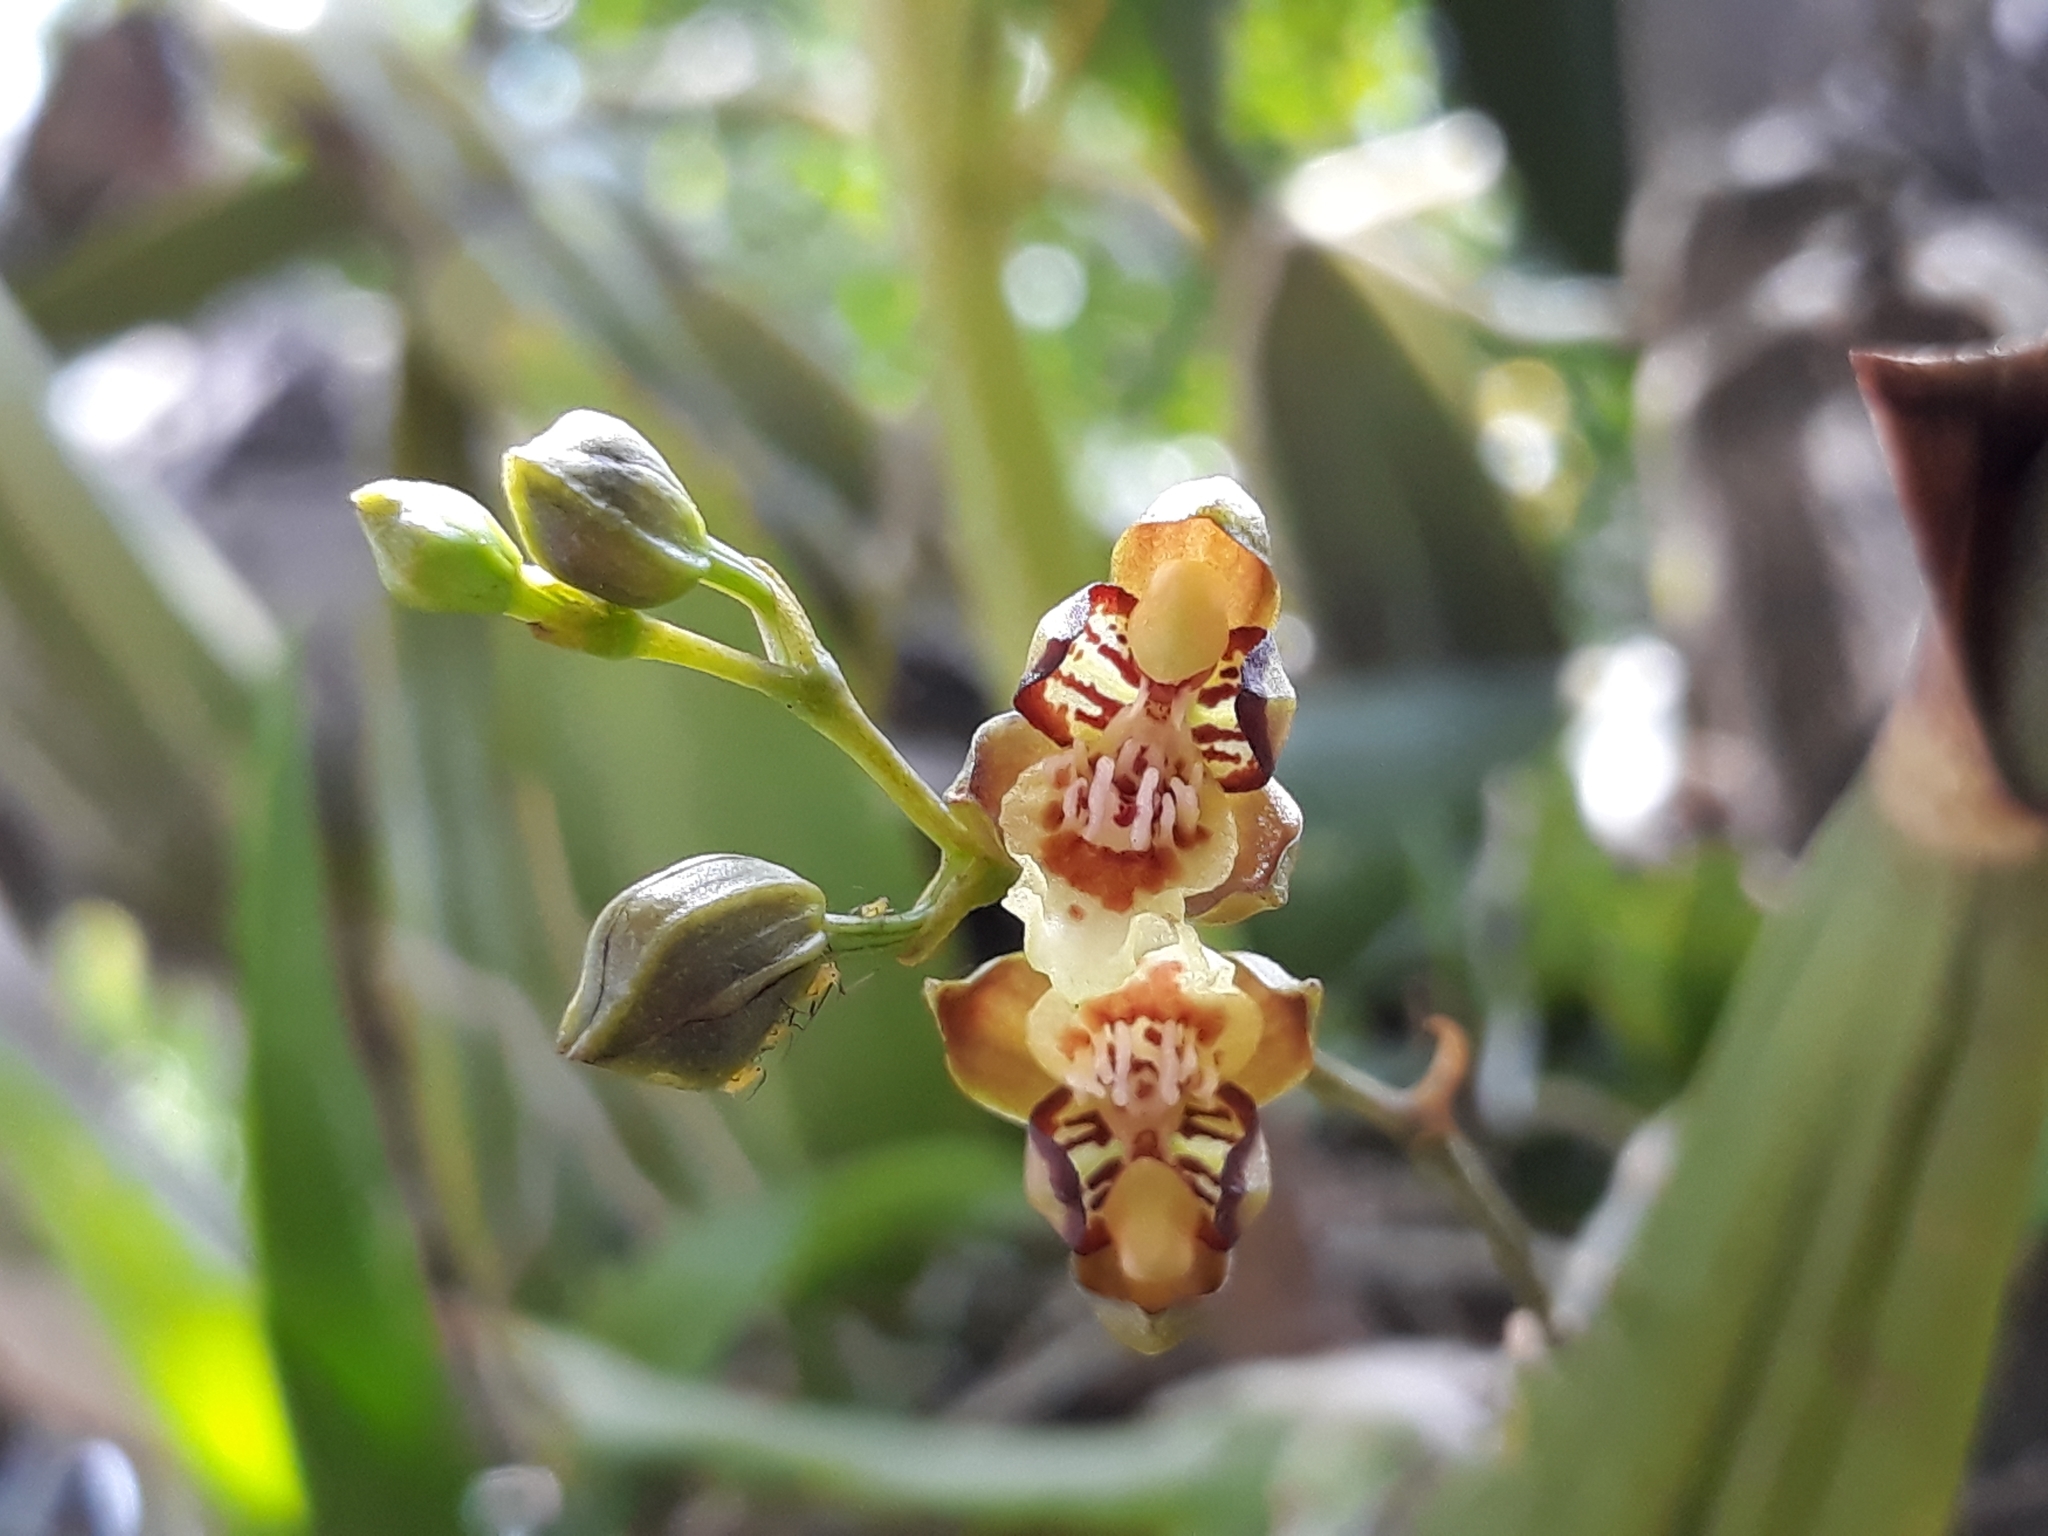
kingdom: Plantae
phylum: Tracheophyta
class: Liliopsida
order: Asparagales
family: Orchidaceae
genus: Leochilus
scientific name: Leochilus carinatus
